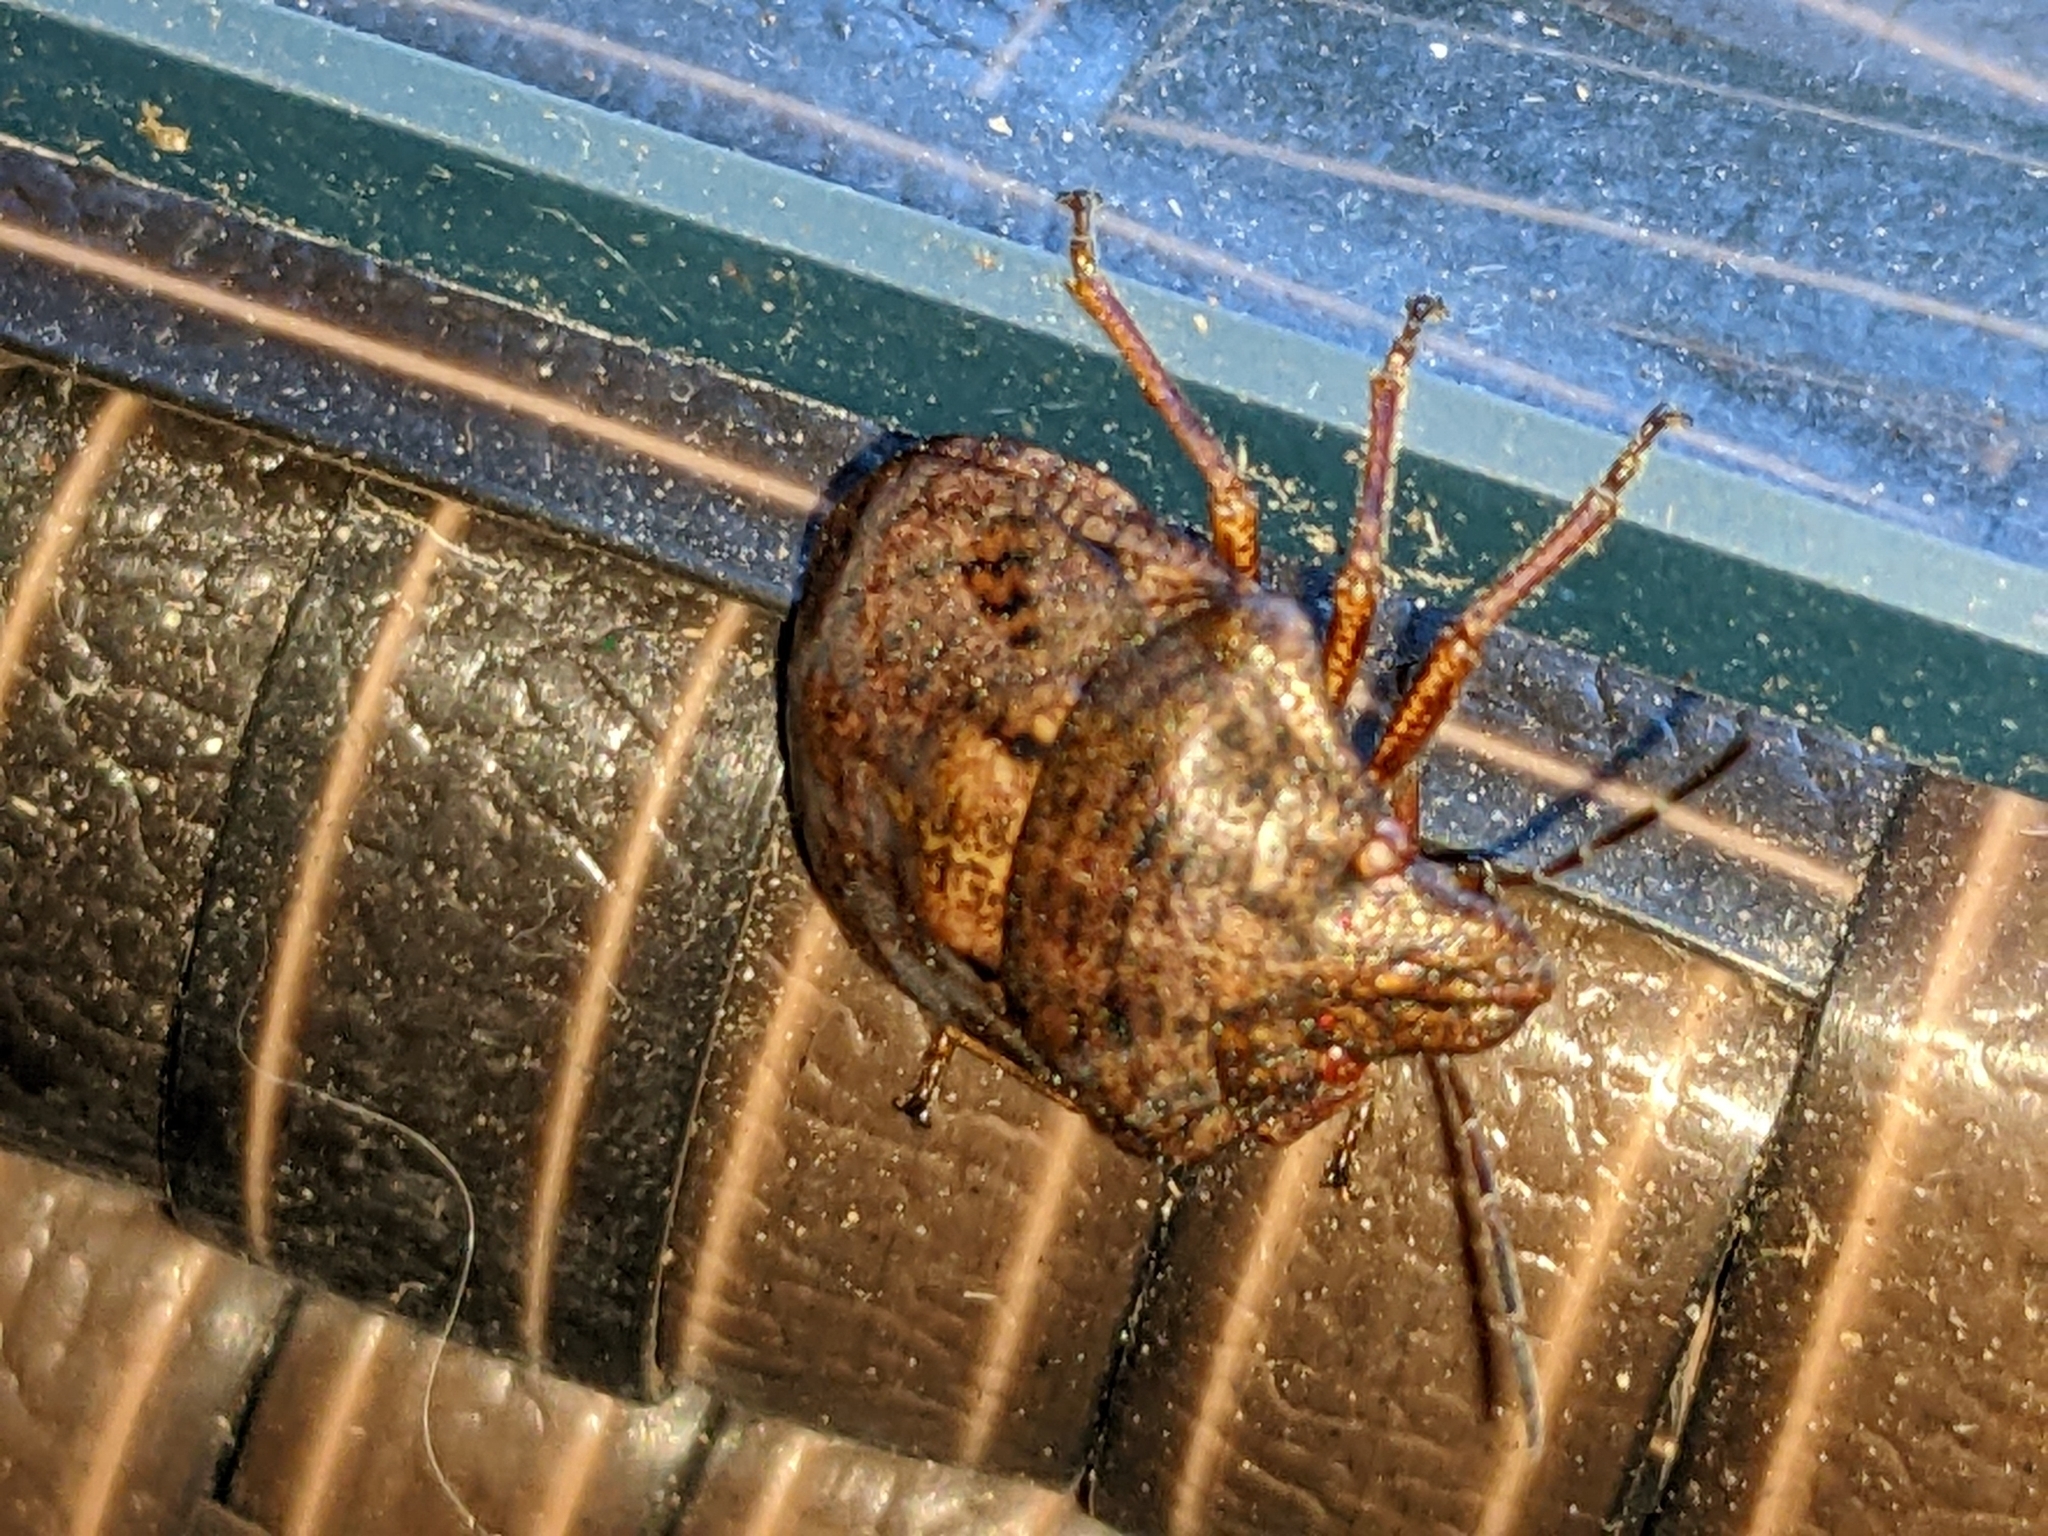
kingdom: Animalia
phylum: Arthropoda
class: Insecta
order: Hemiptera
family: Scutelleridae
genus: Tetyra
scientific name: Tetyra bipunctata
